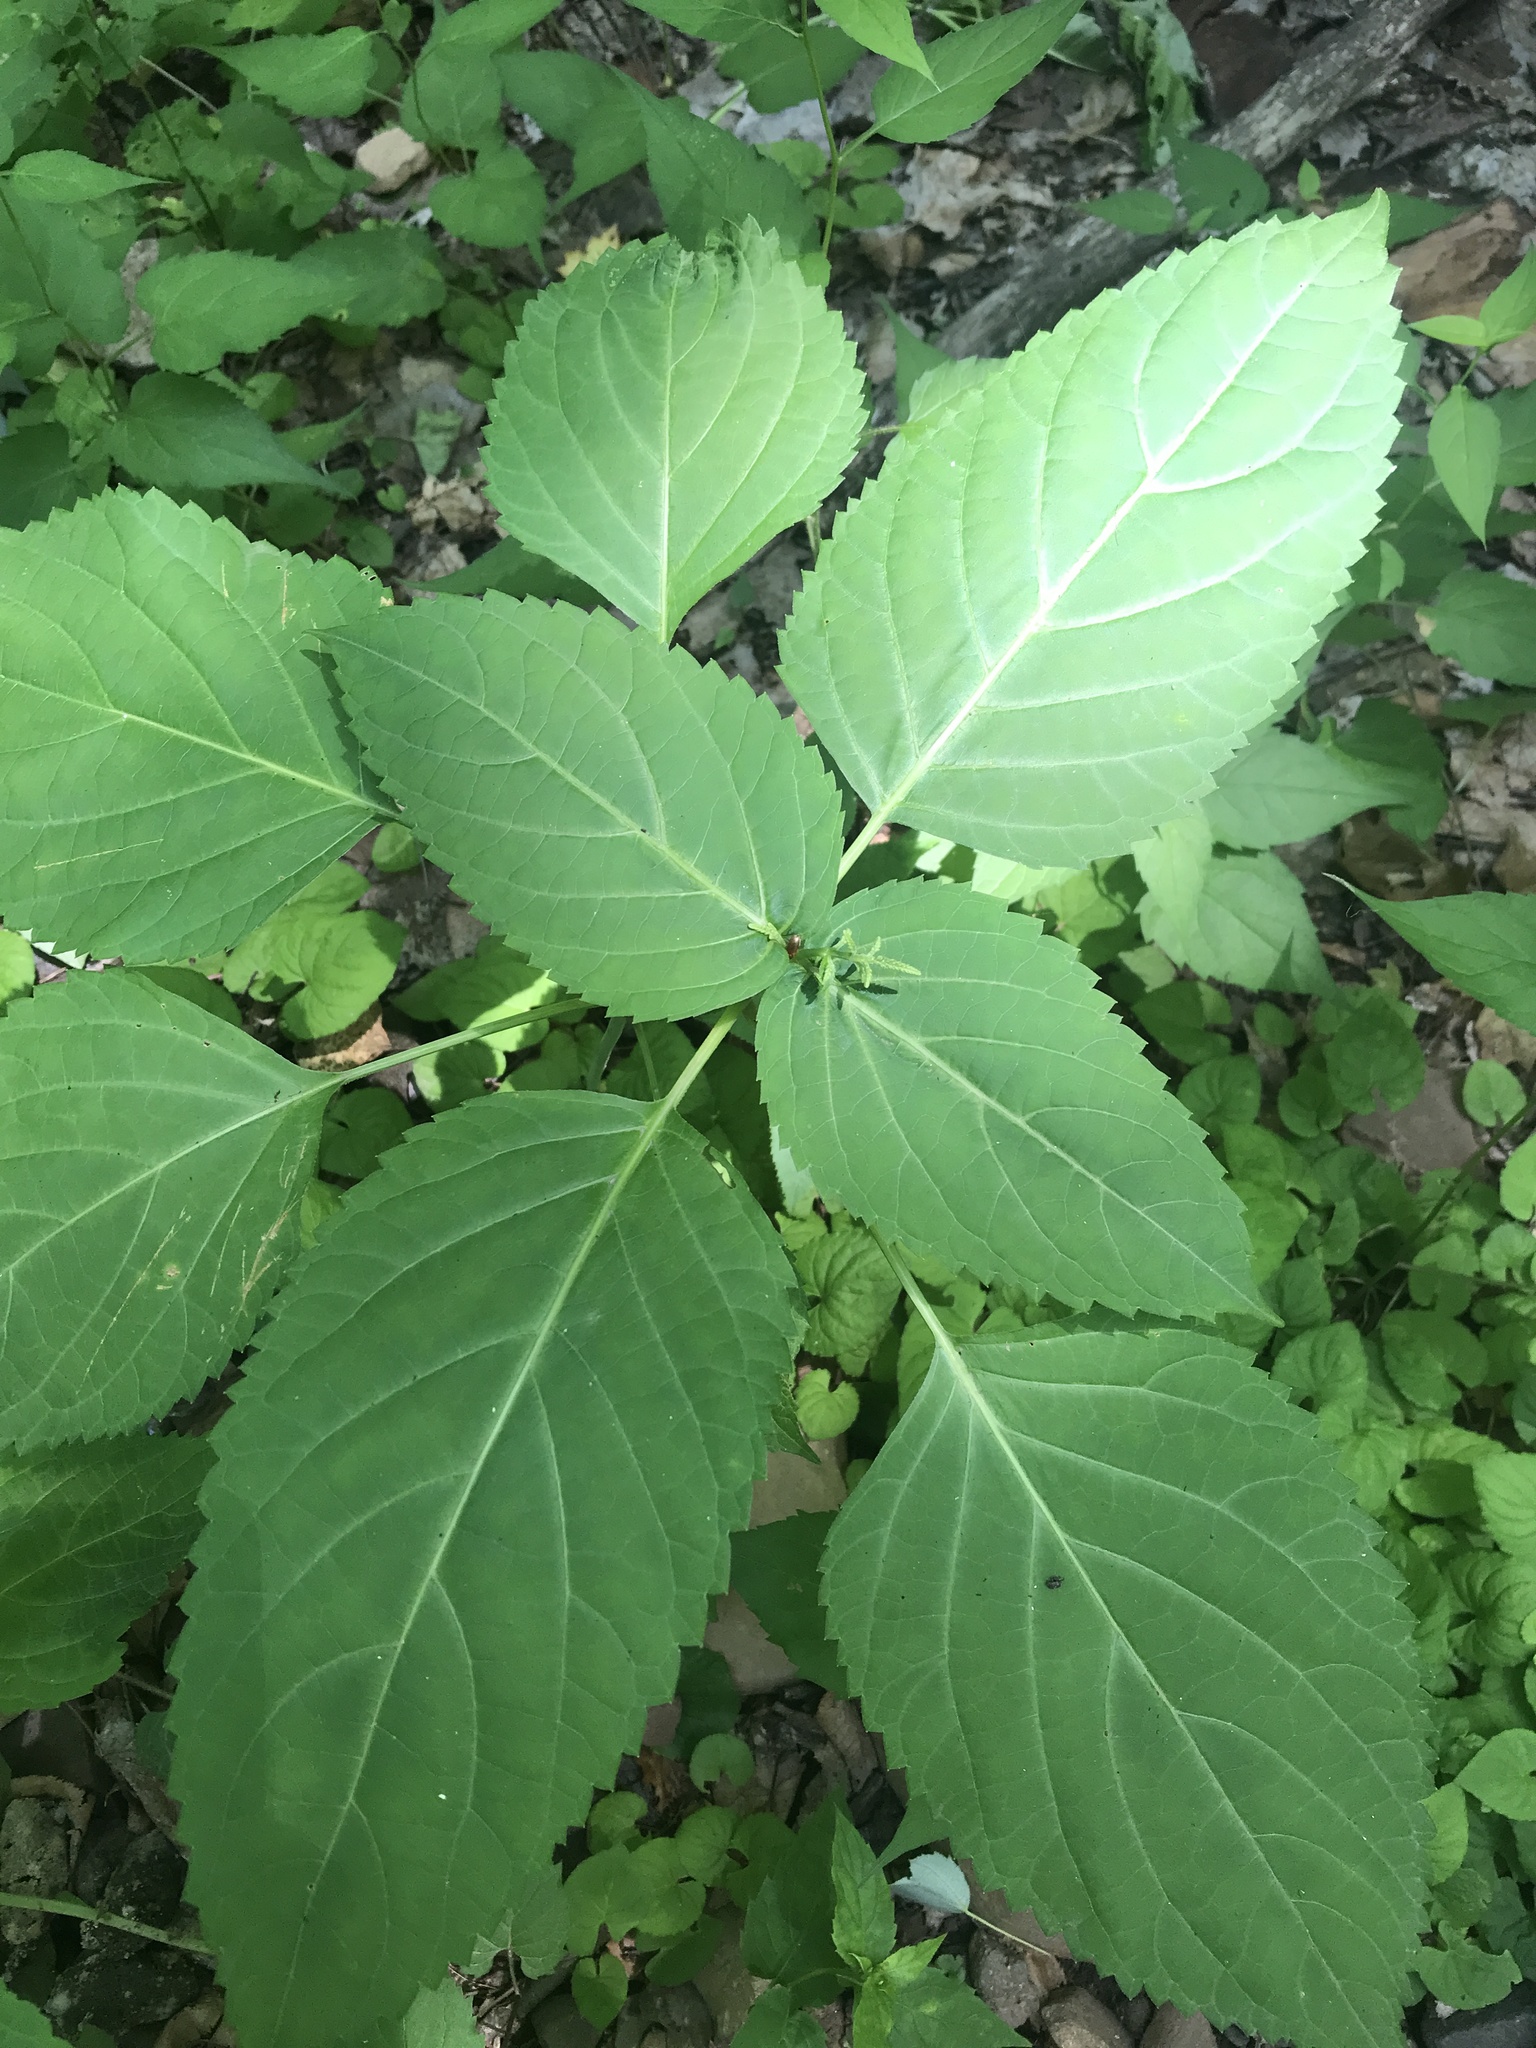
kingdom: Plantae
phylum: Tracheophyta
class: Magnoliopsida
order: Lamiales
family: Lamiaceae
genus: Collinsonia
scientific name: Collinsonia canadensis
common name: Northern horsebalm
